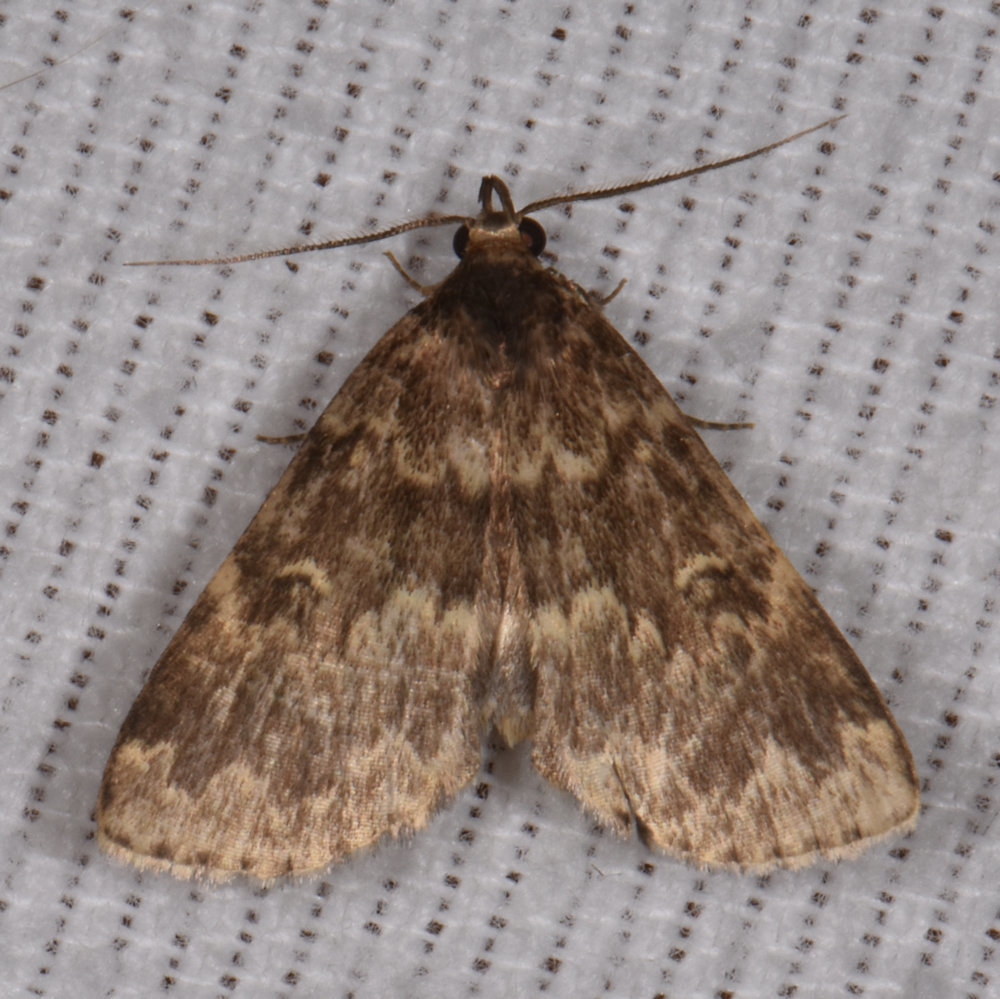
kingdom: Animalia
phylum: Arthropoda
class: Insecta
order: Lepidoptera
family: Erebidae
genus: Idia
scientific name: Idia lubricalis
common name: Twin-striped tabby
